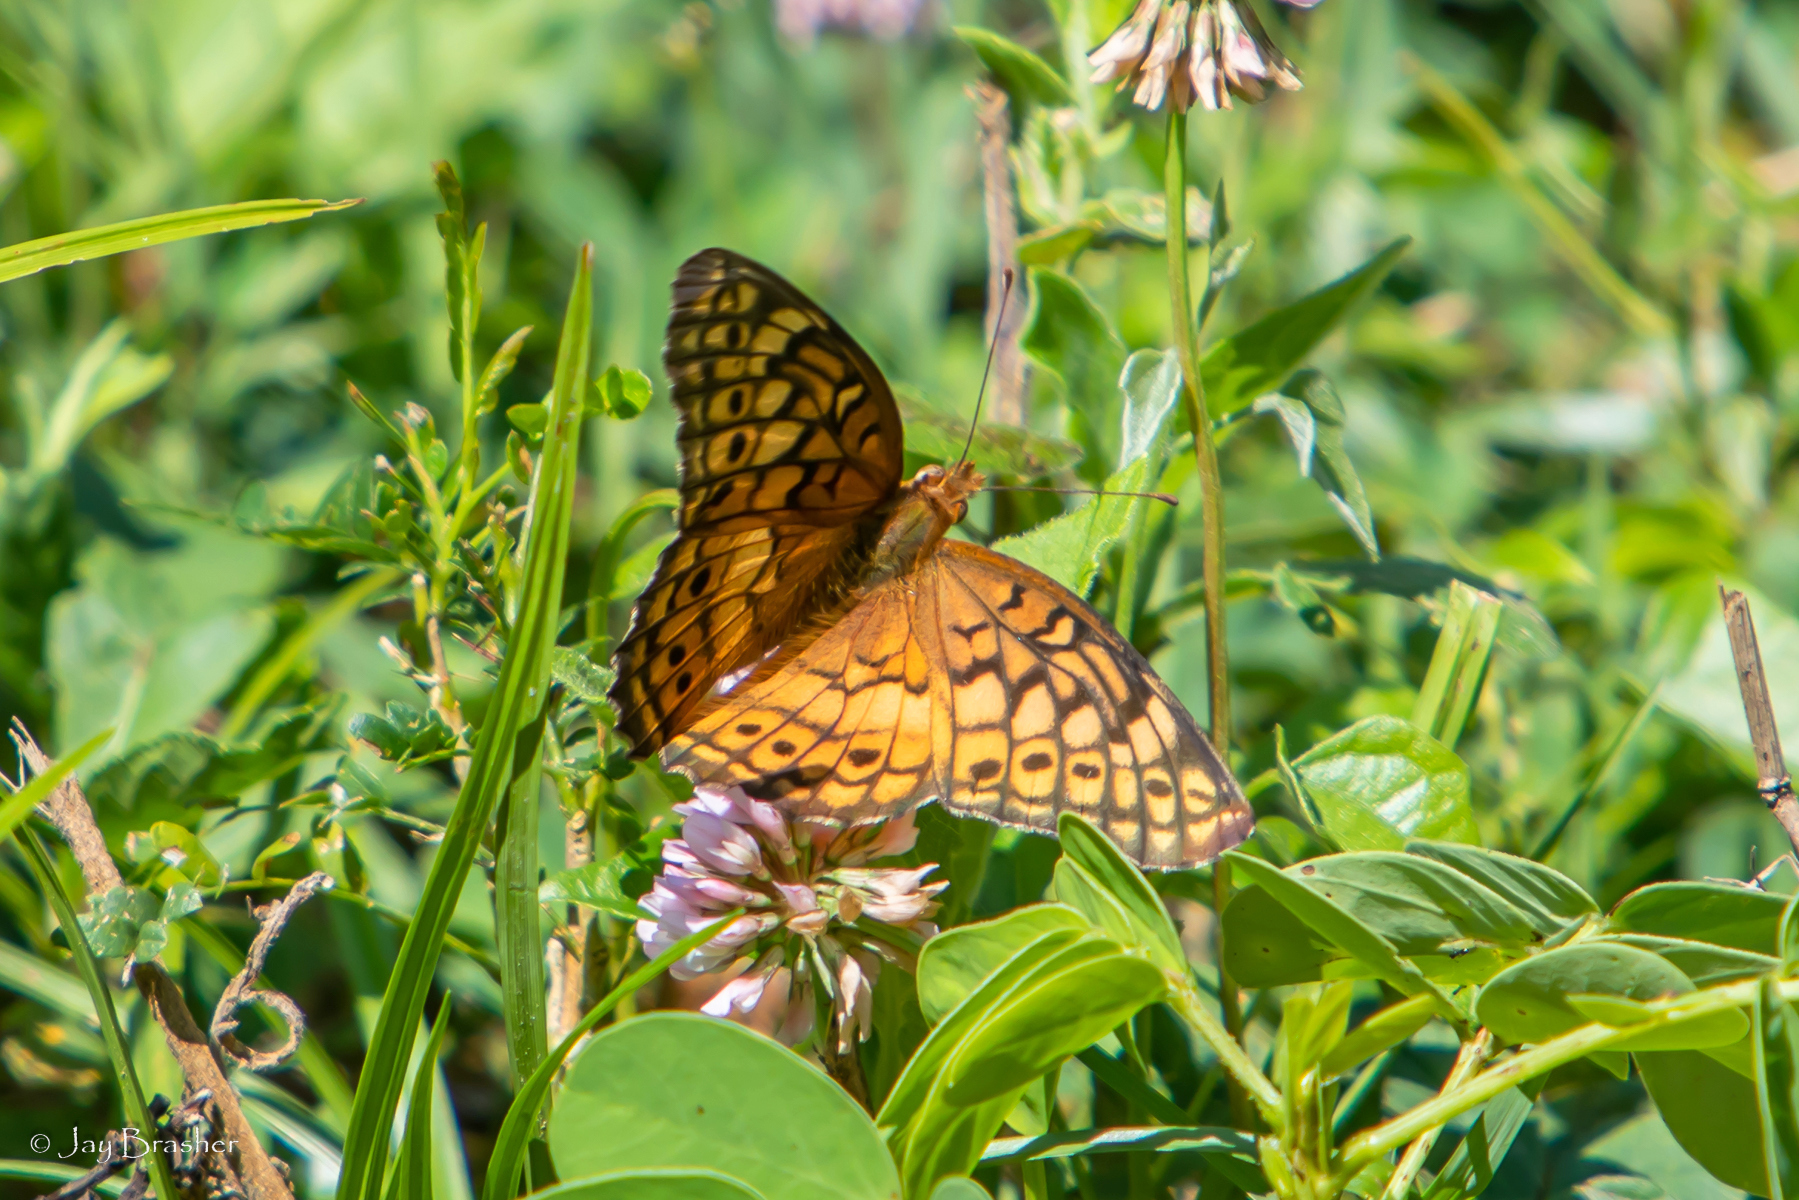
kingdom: Animalia
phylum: Arthropoda
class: Insecta
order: Lepidoptera
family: Nymphalidae
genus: Euptoieta
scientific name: Euptoieta claudia
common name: Variegated fritillary
